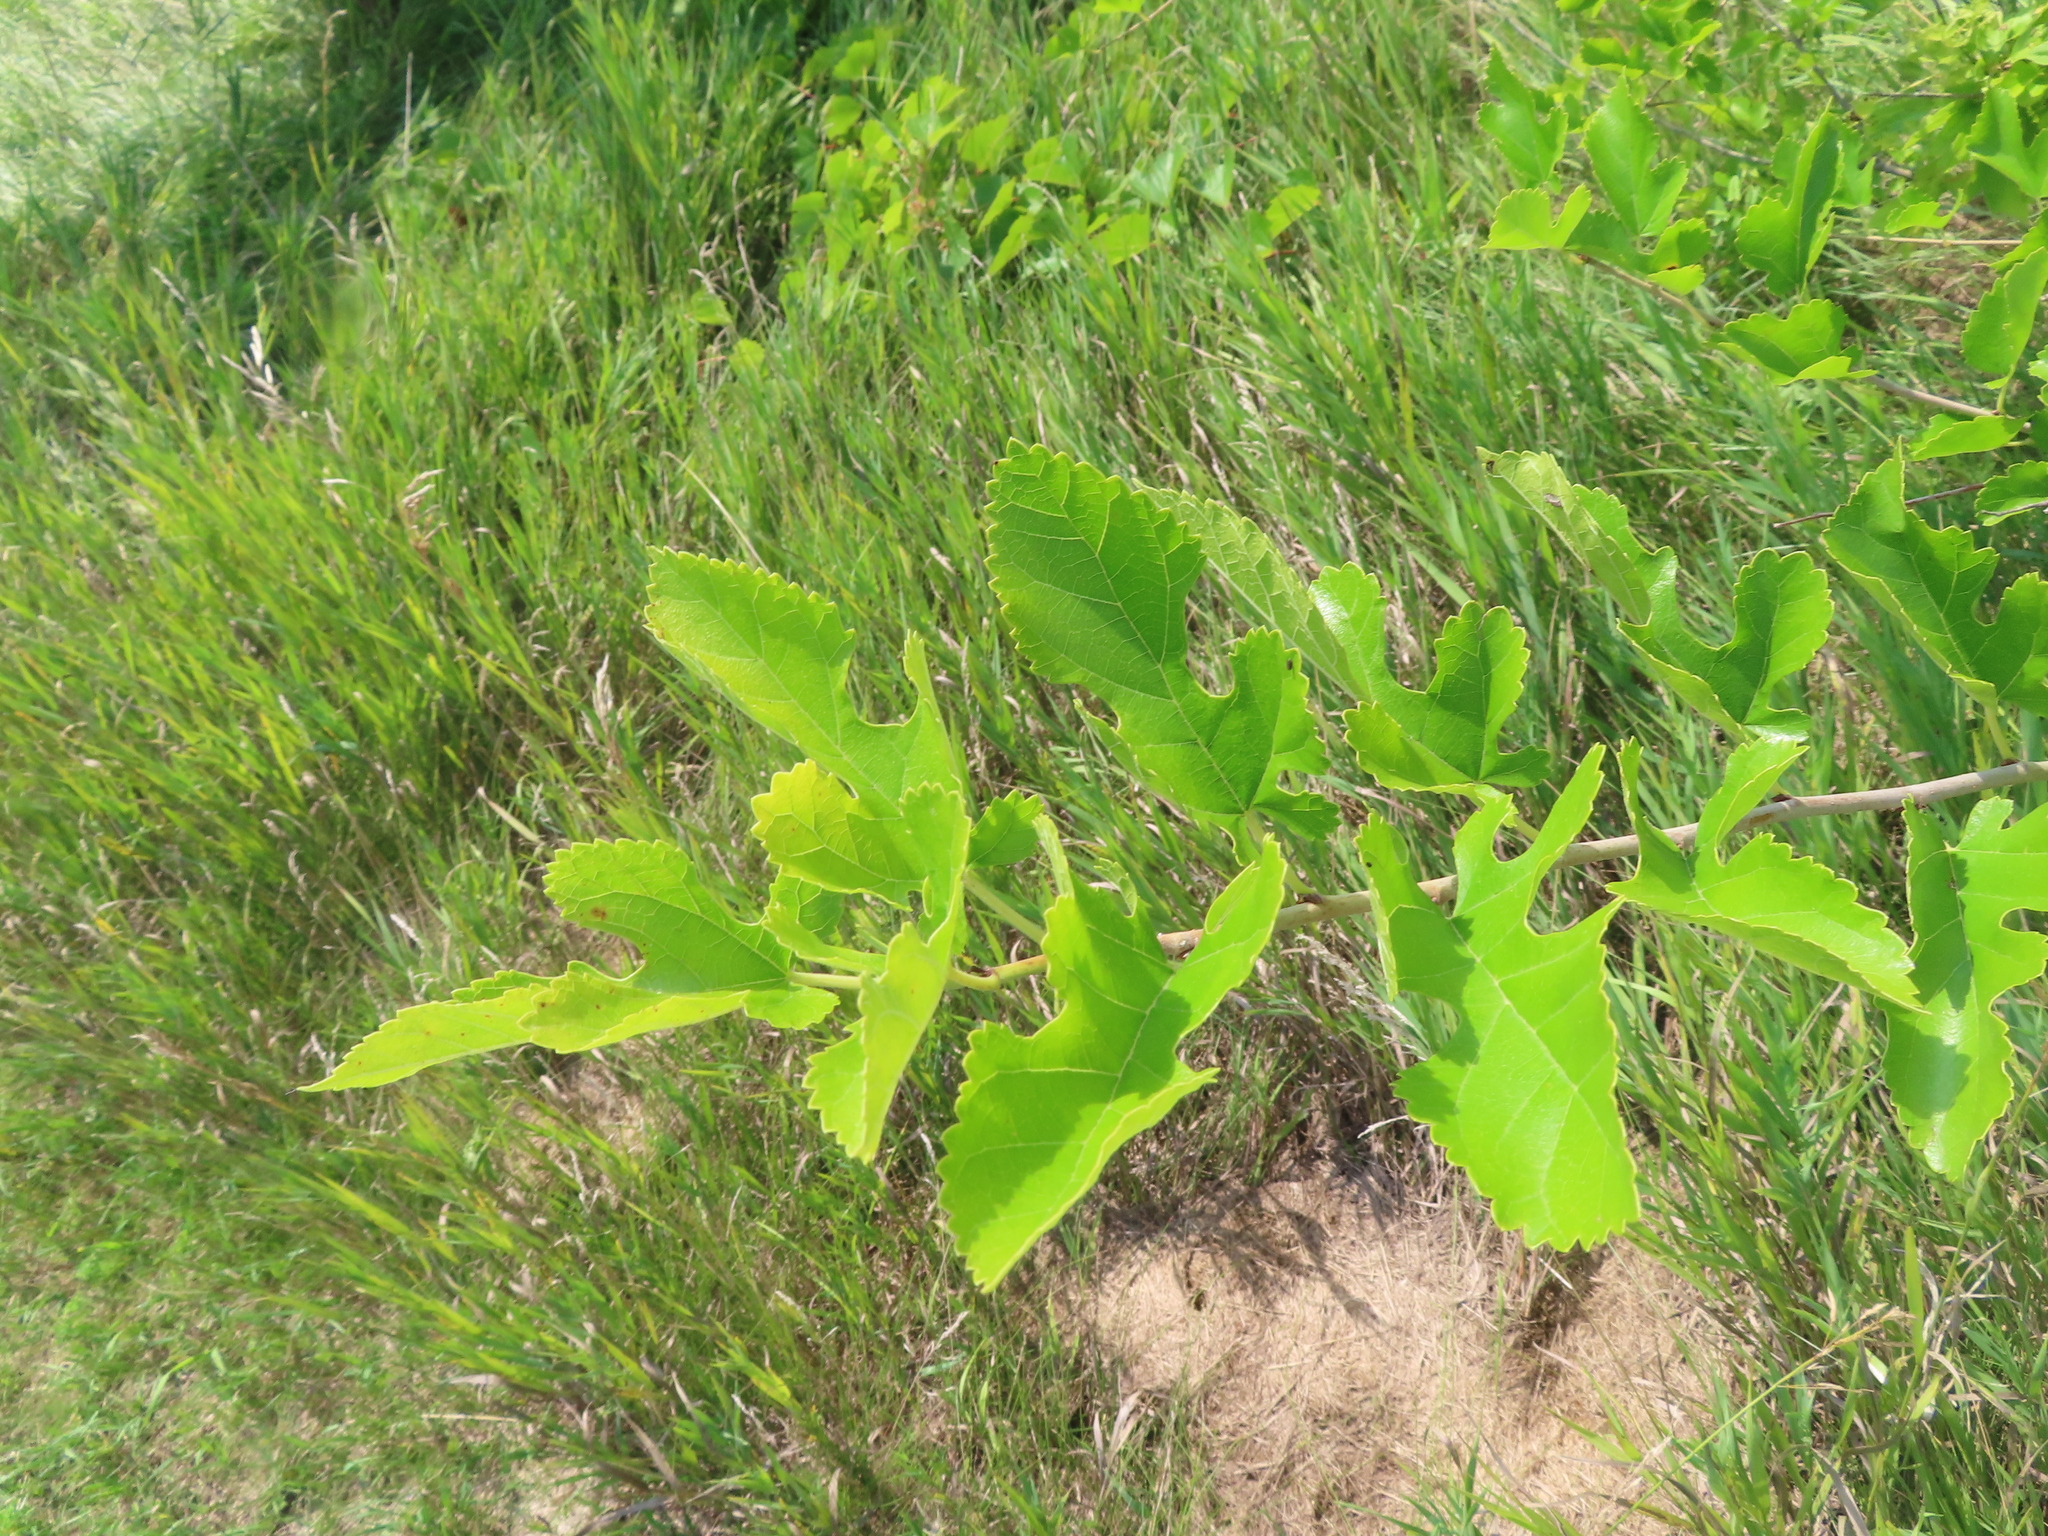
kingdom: Plantae
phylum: Tracheophyta
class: Magnoliopsida
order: Rosales
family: Moraceae
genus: Morus
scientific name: Morus alba
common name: White mulberry
